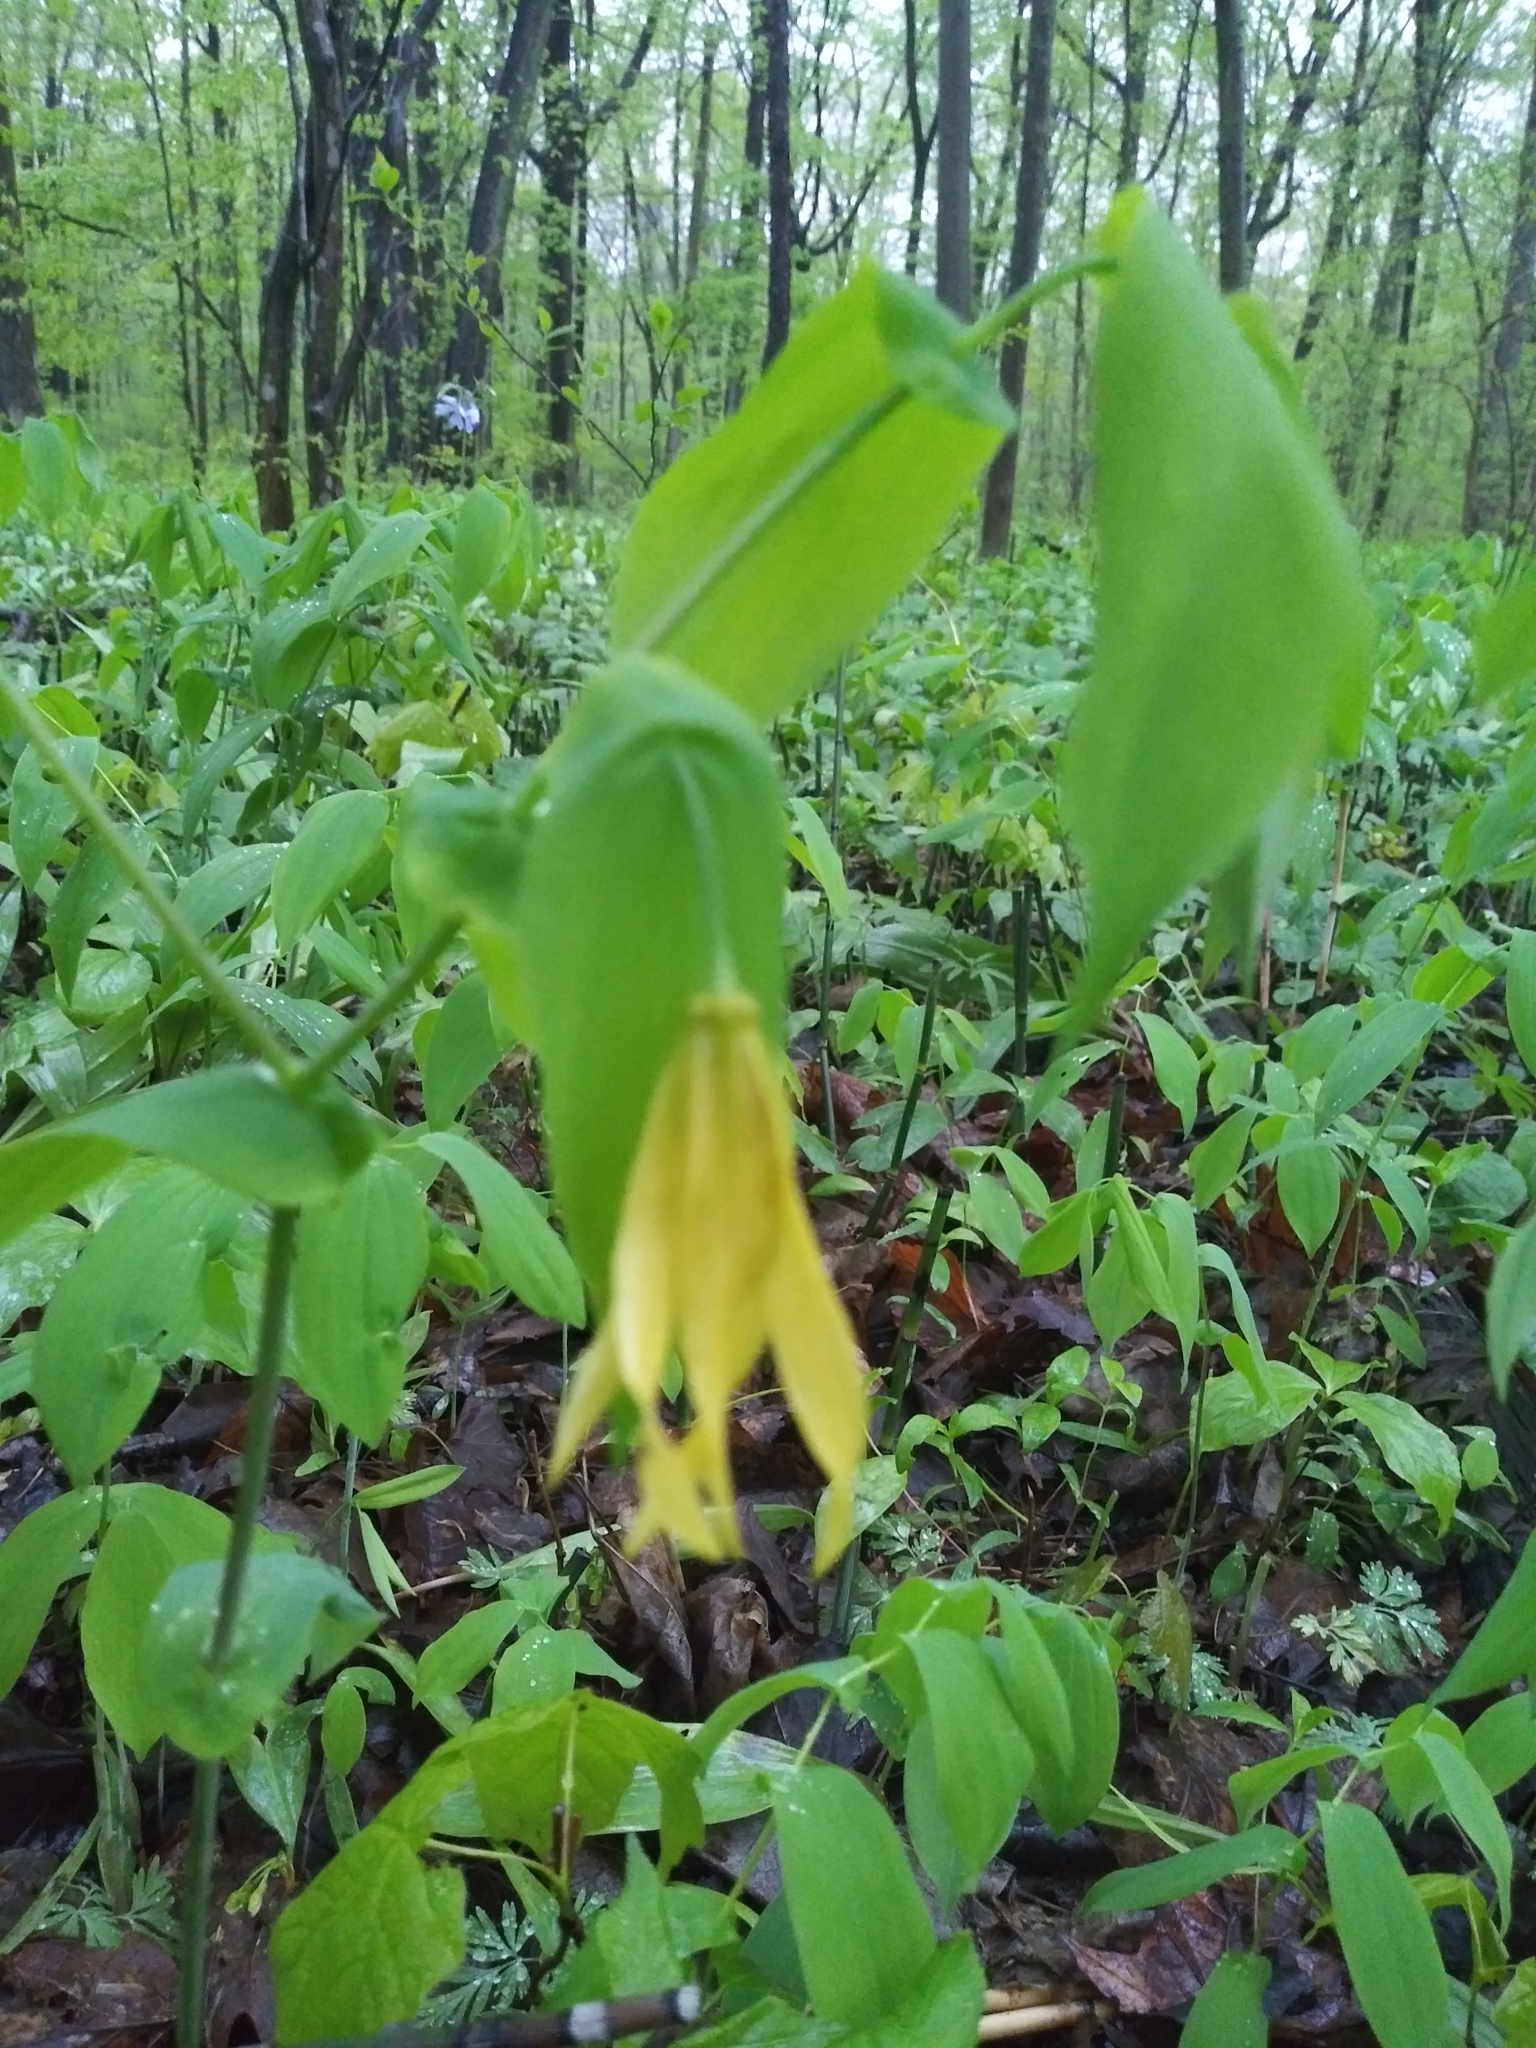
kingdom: Plantae
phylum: Tracheophyta
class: Liliopsida
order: Liliales
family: Colchicaceae
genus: Uvularia
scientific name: Uvularia grandiflora
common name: Bellwort
